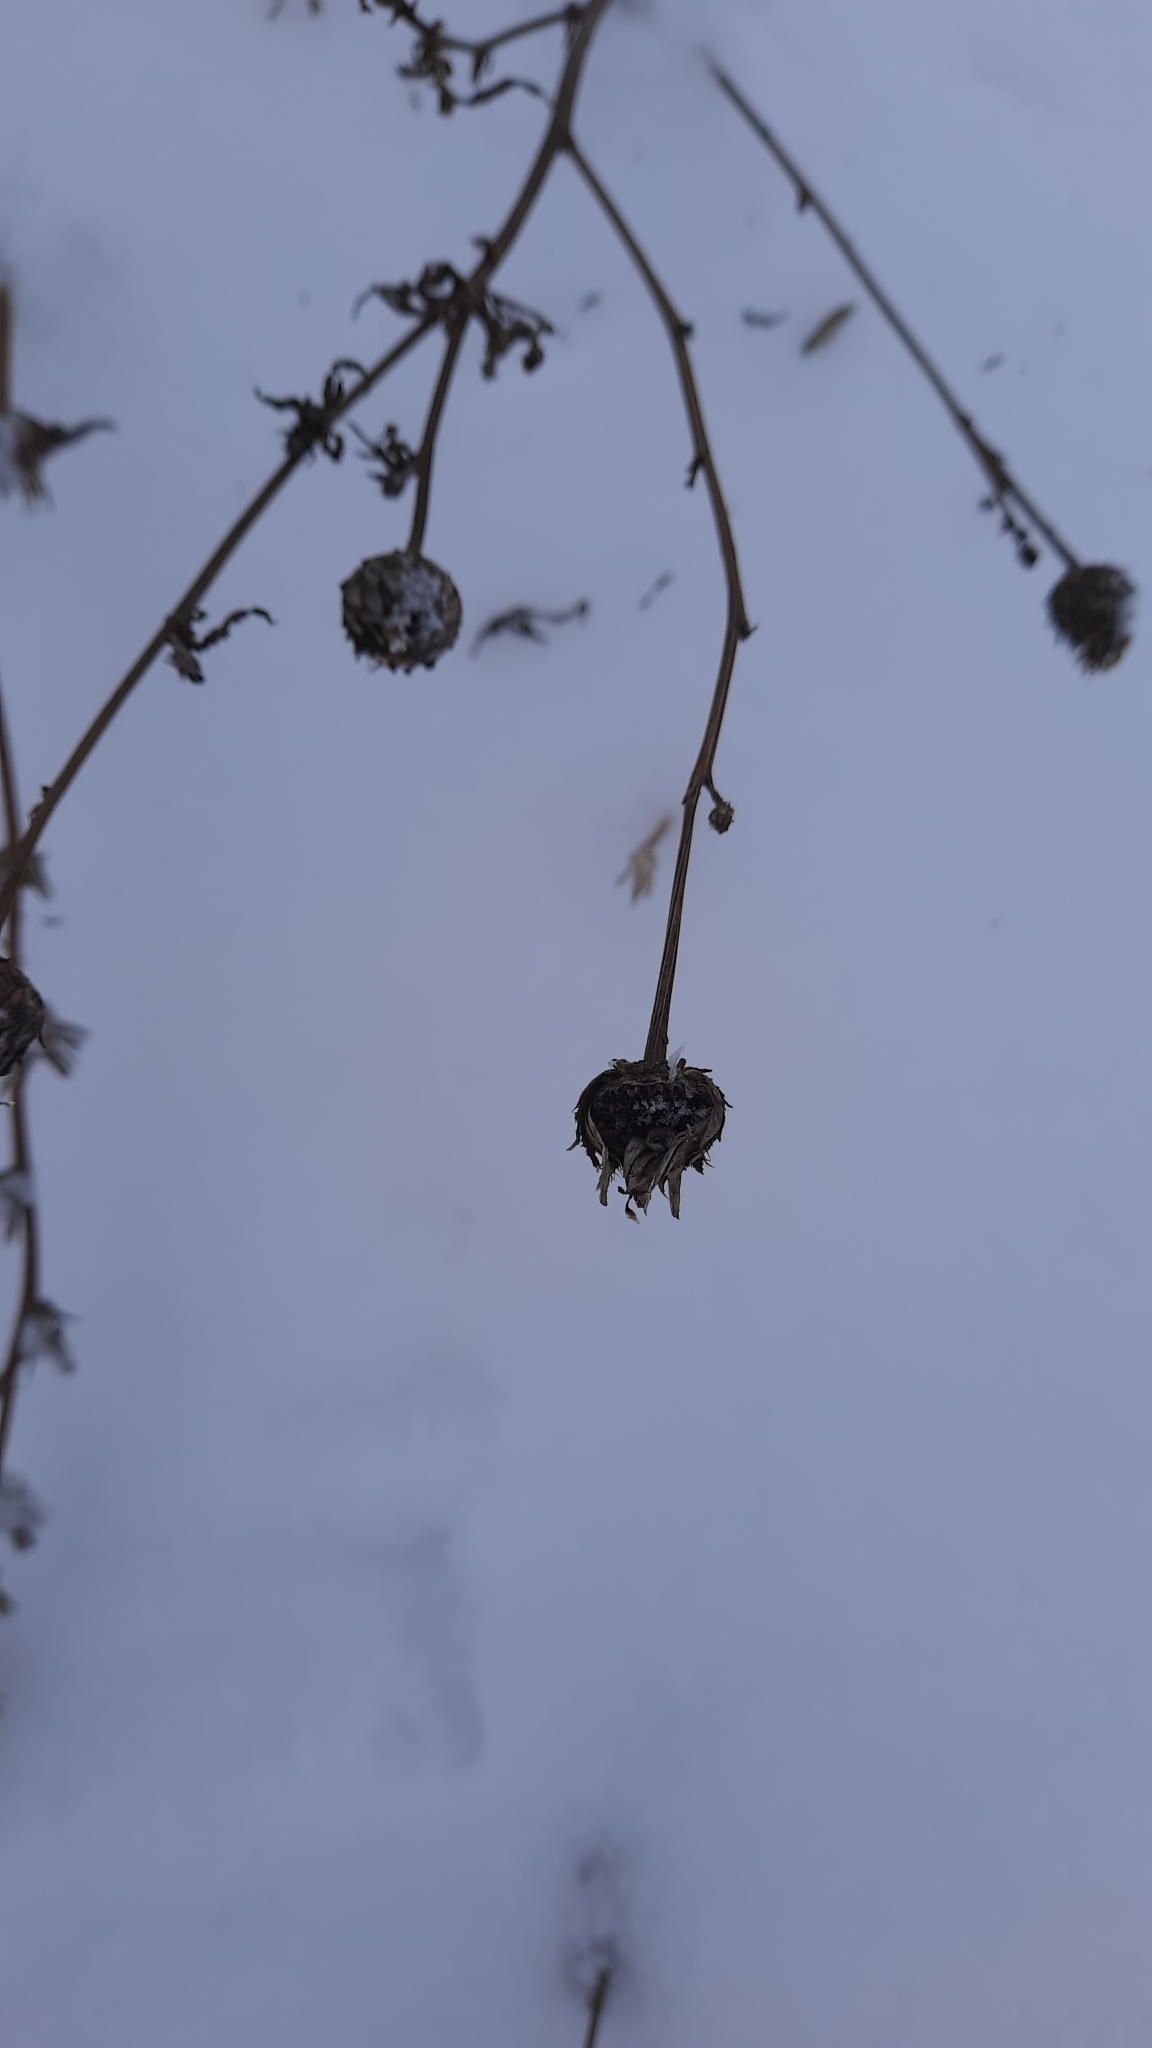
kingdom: Plantae
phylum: Tracheophyta
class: Magnoliopsida
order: Asterales
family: Asteraceae
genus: Centaurea
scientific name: Centaurea scabiosa
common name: Greater knapweed
